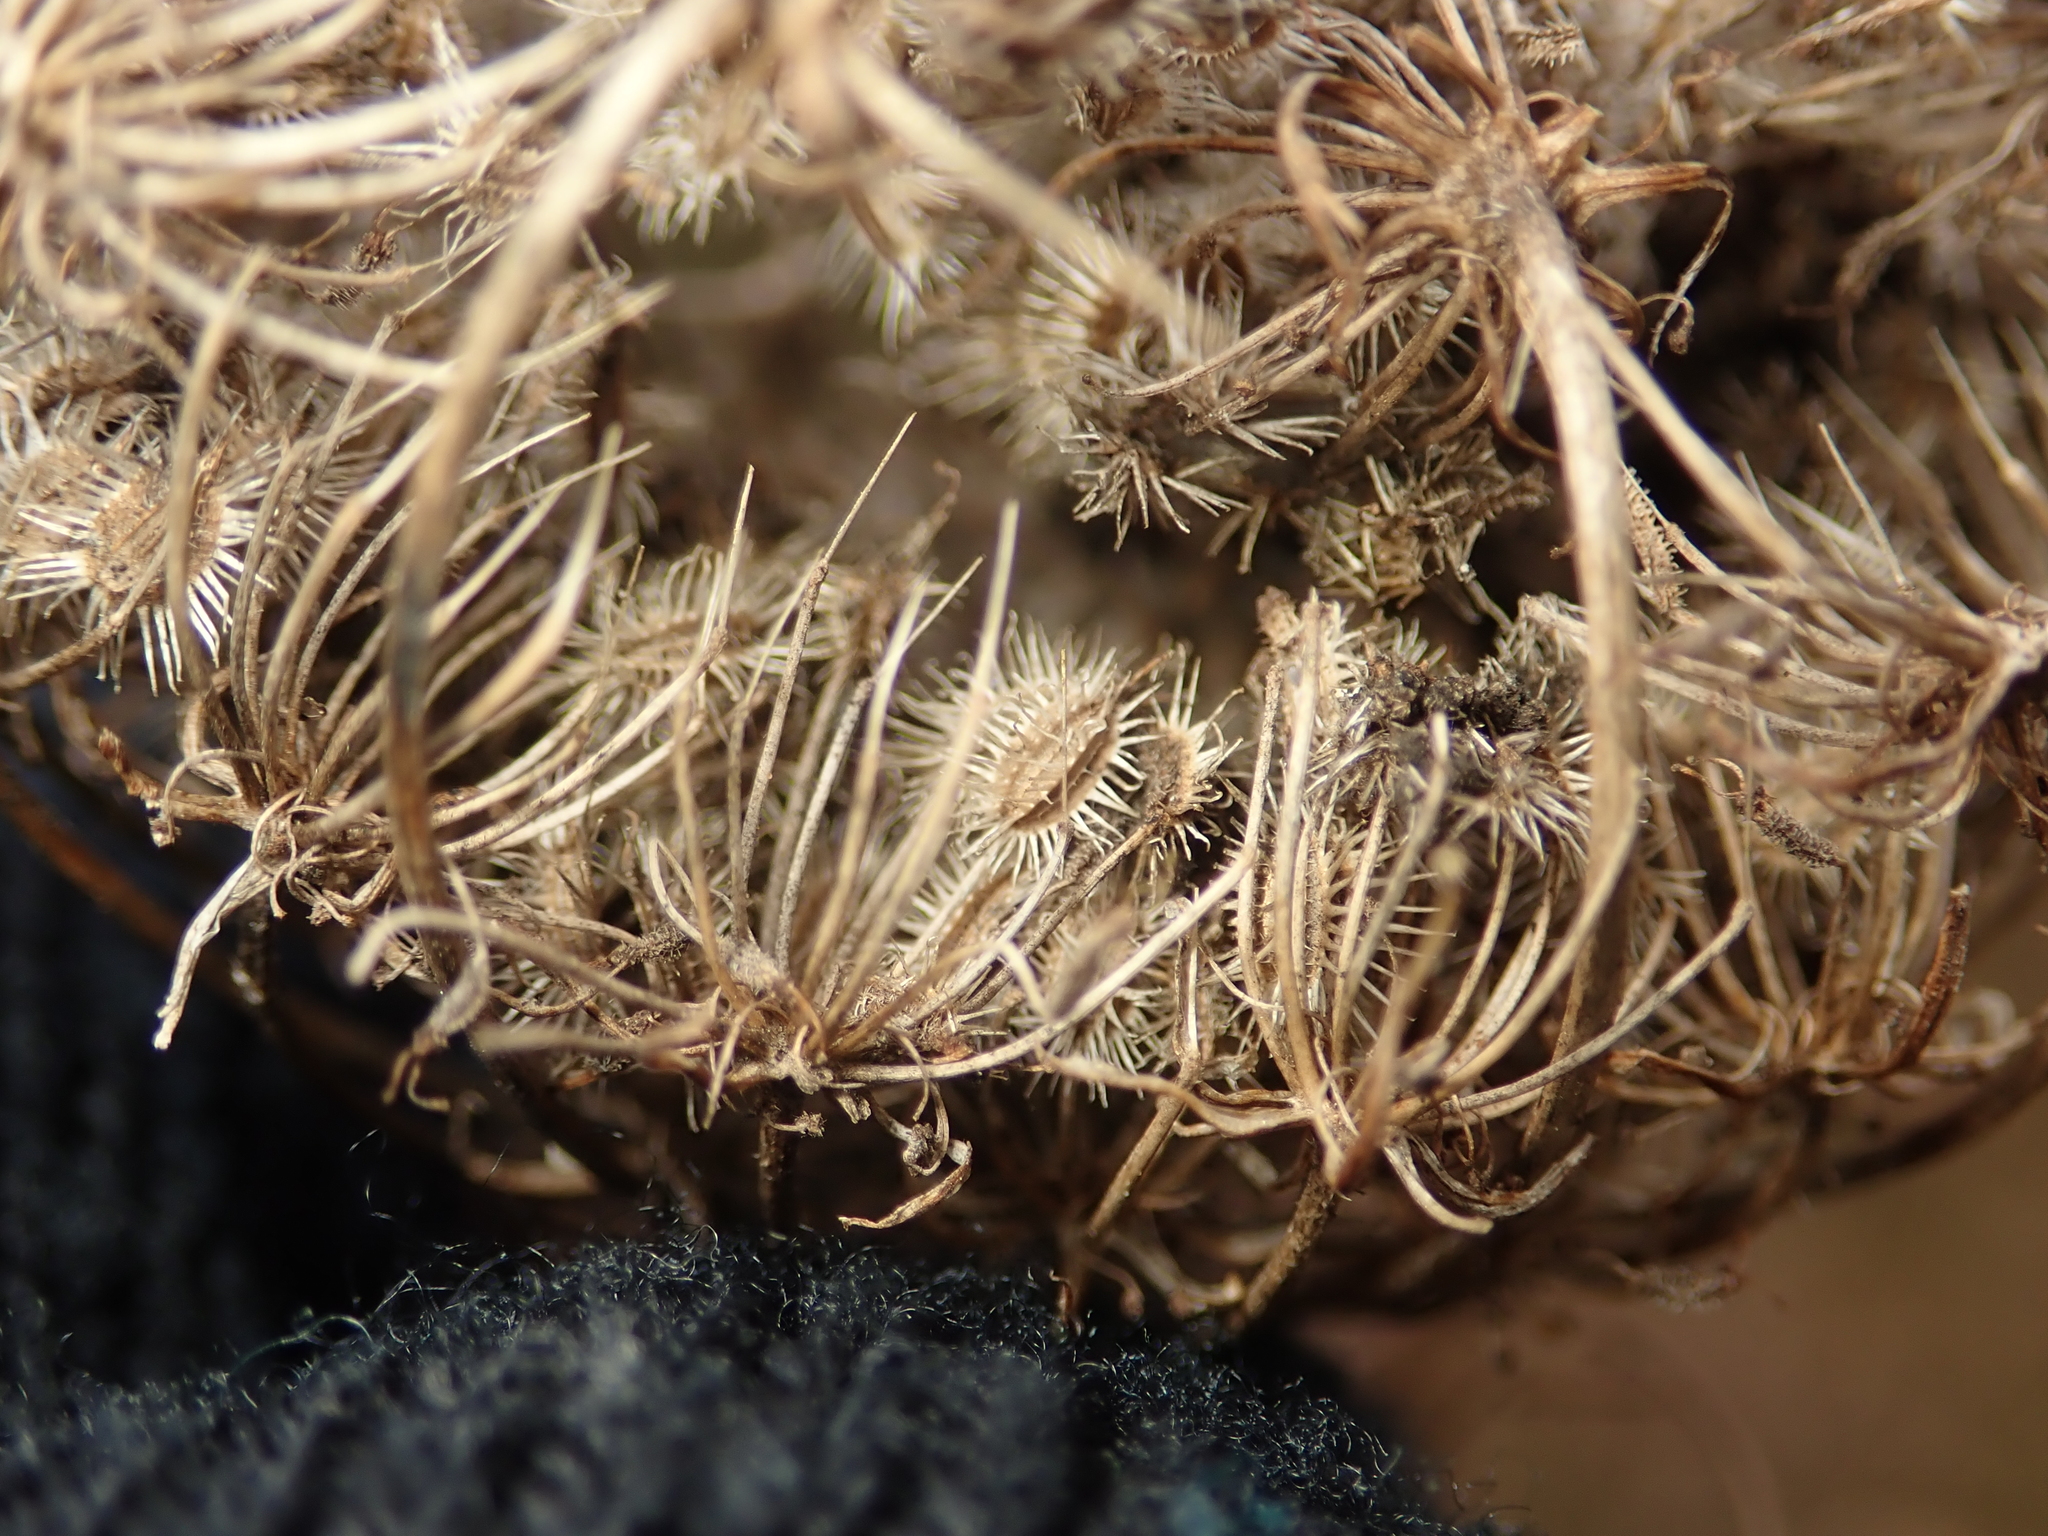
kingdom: Plantae
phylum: Tracheophyta
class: Magnoliopsida
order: Apiales
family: Apiaceae
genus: Daucus
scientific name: Daucus carota
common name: Wild carrot
